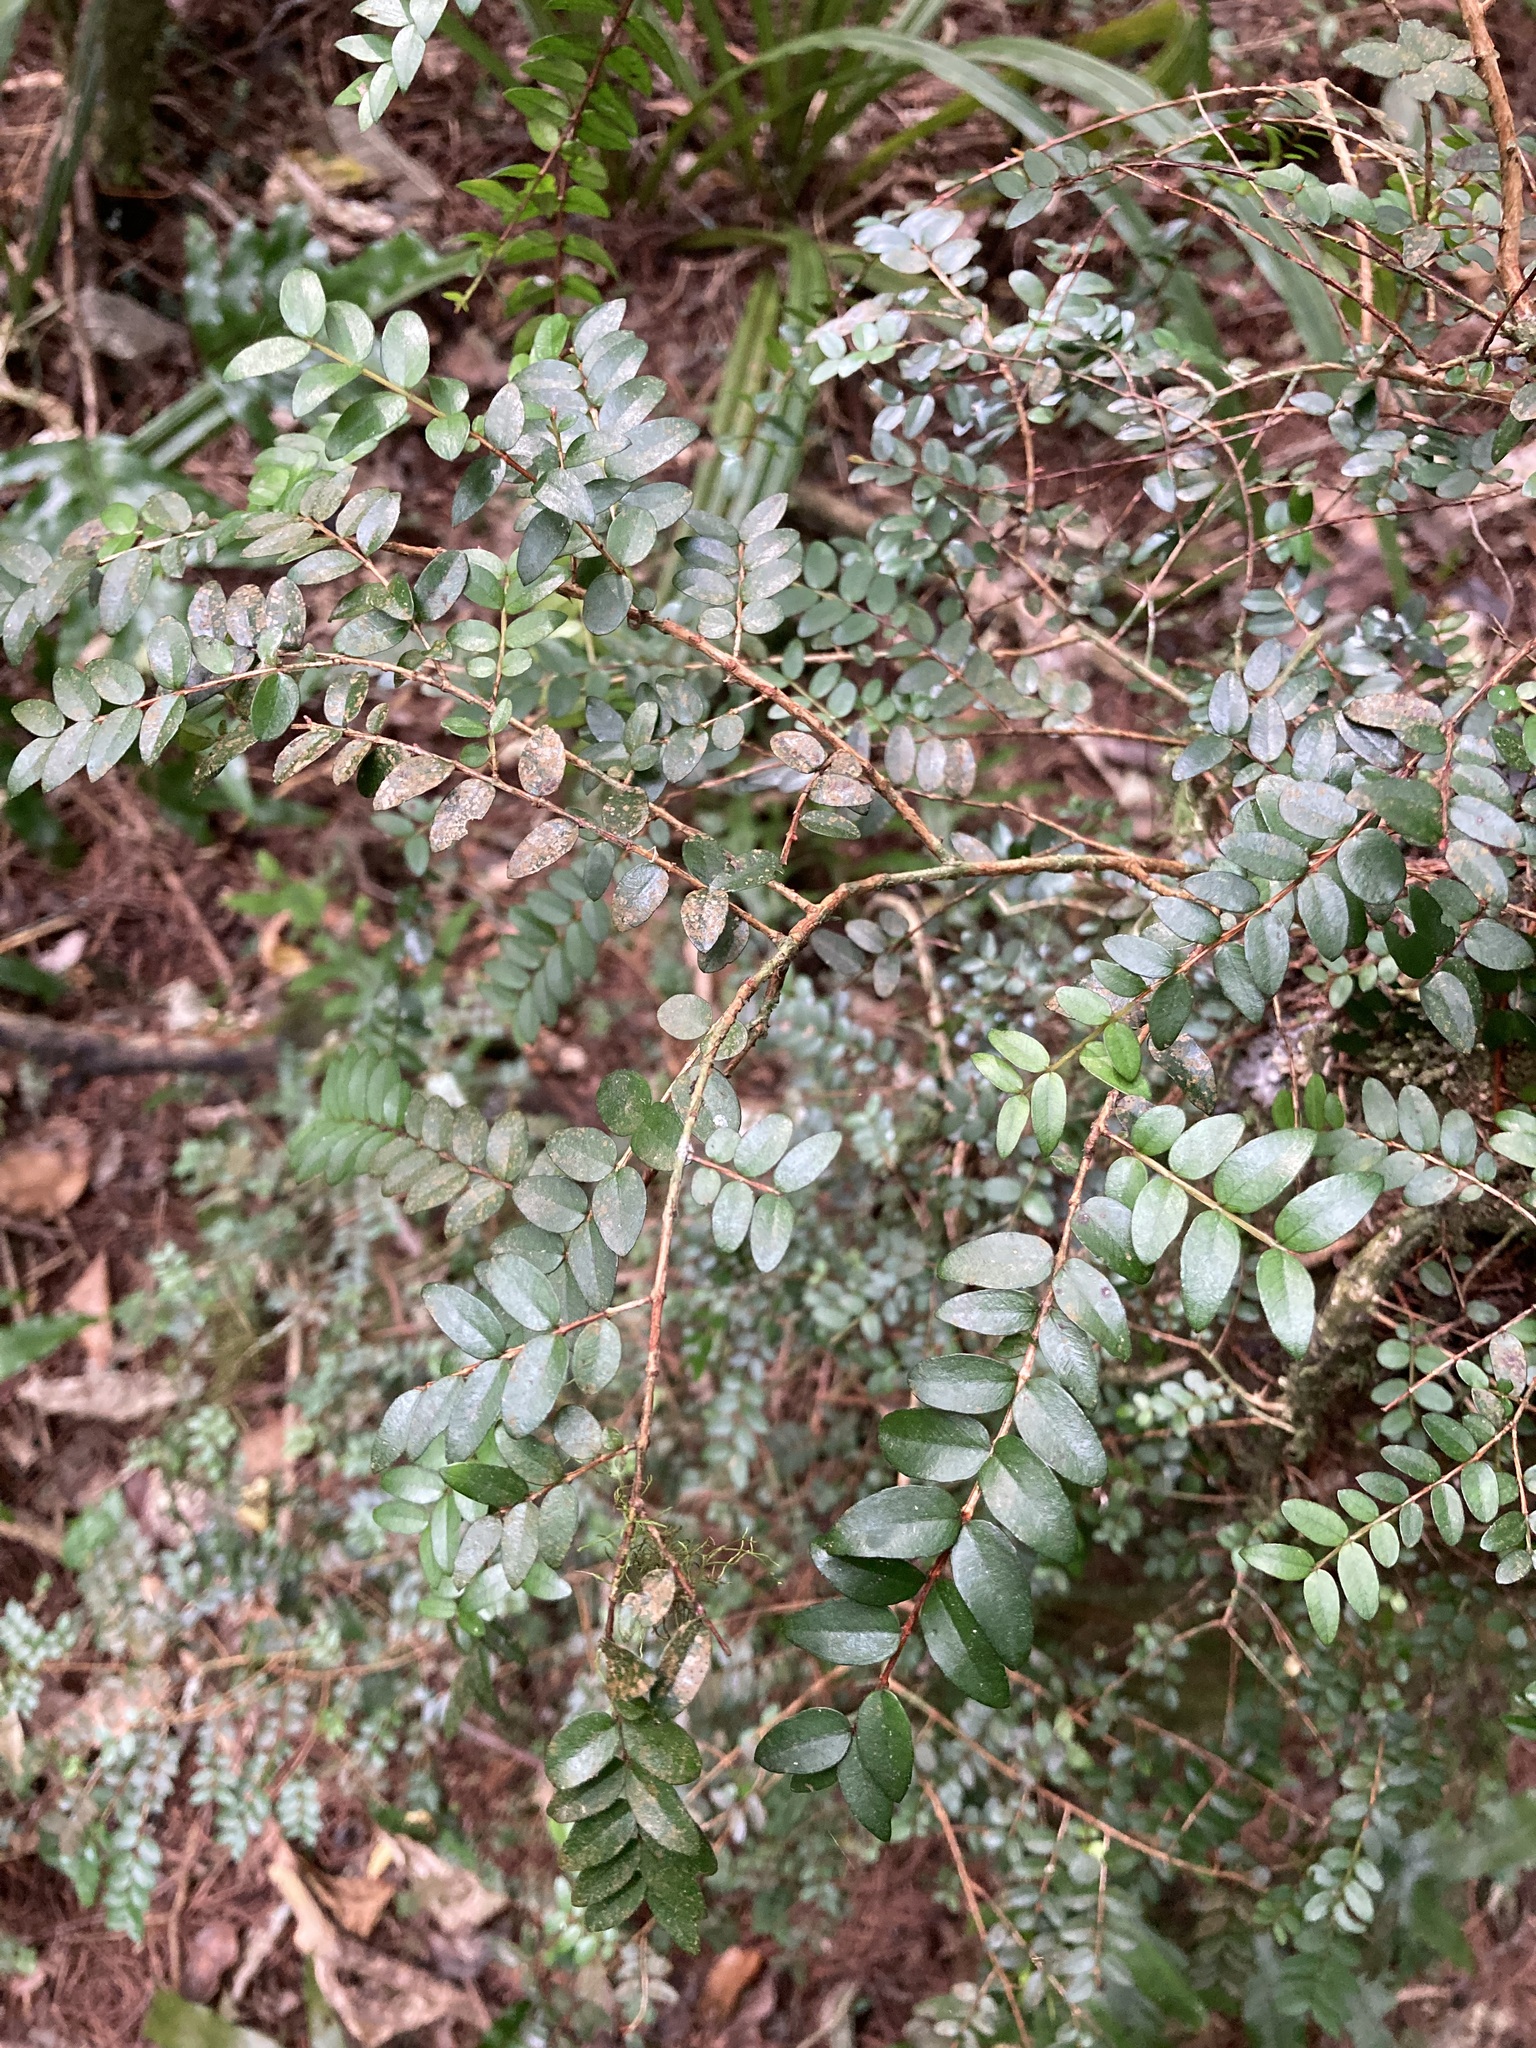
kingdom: Plantae
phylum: Tracheophyta
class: Magnoliopsida
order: Myrtales
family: Myrtaceae
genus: Metrosideros
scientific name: Metrosideros diffusa
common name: Small ratavine
